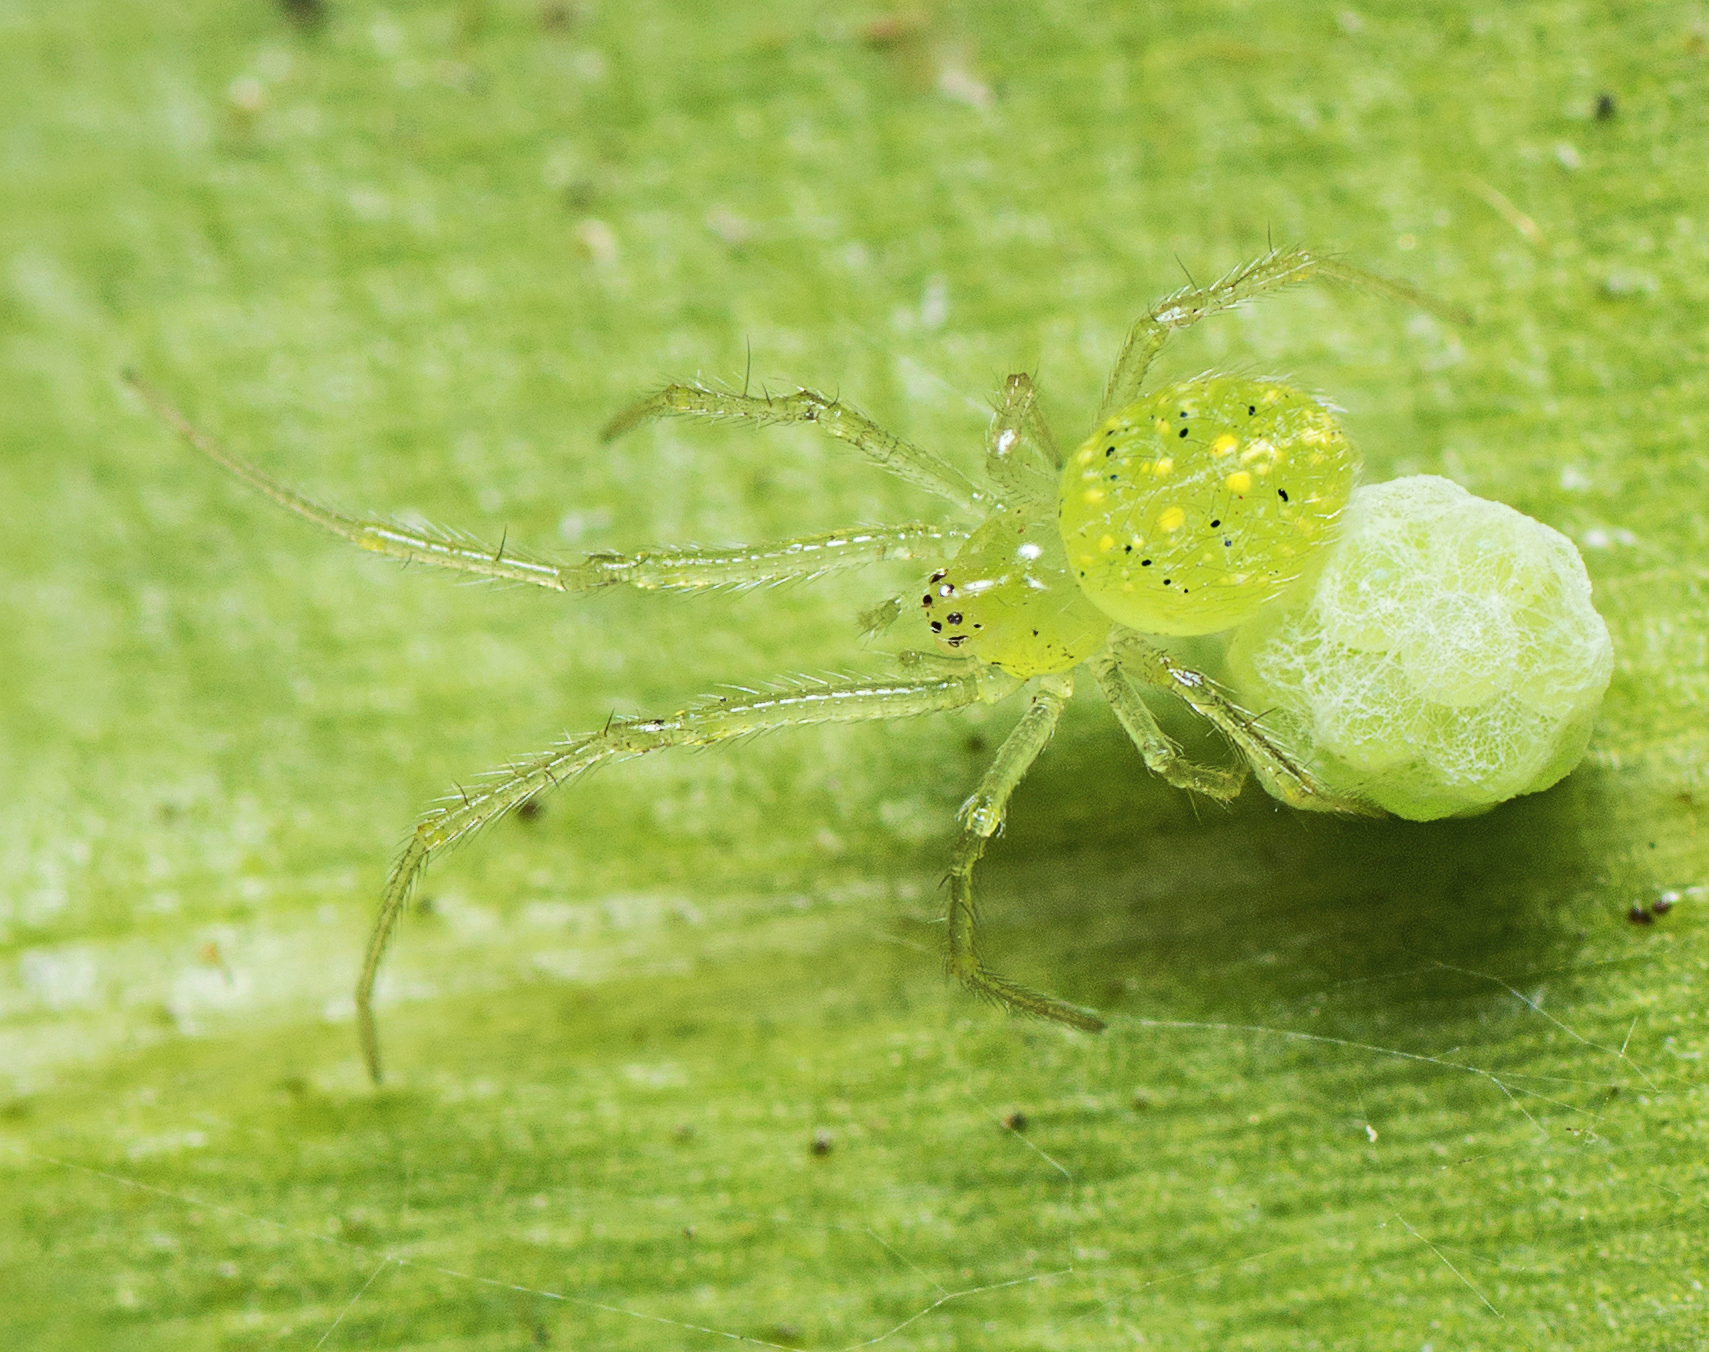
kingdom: Animalia
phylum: Arthropoda
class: Arachnida
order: Araneae
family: Theridiidae
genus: Chrysso
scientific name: Chrysso
